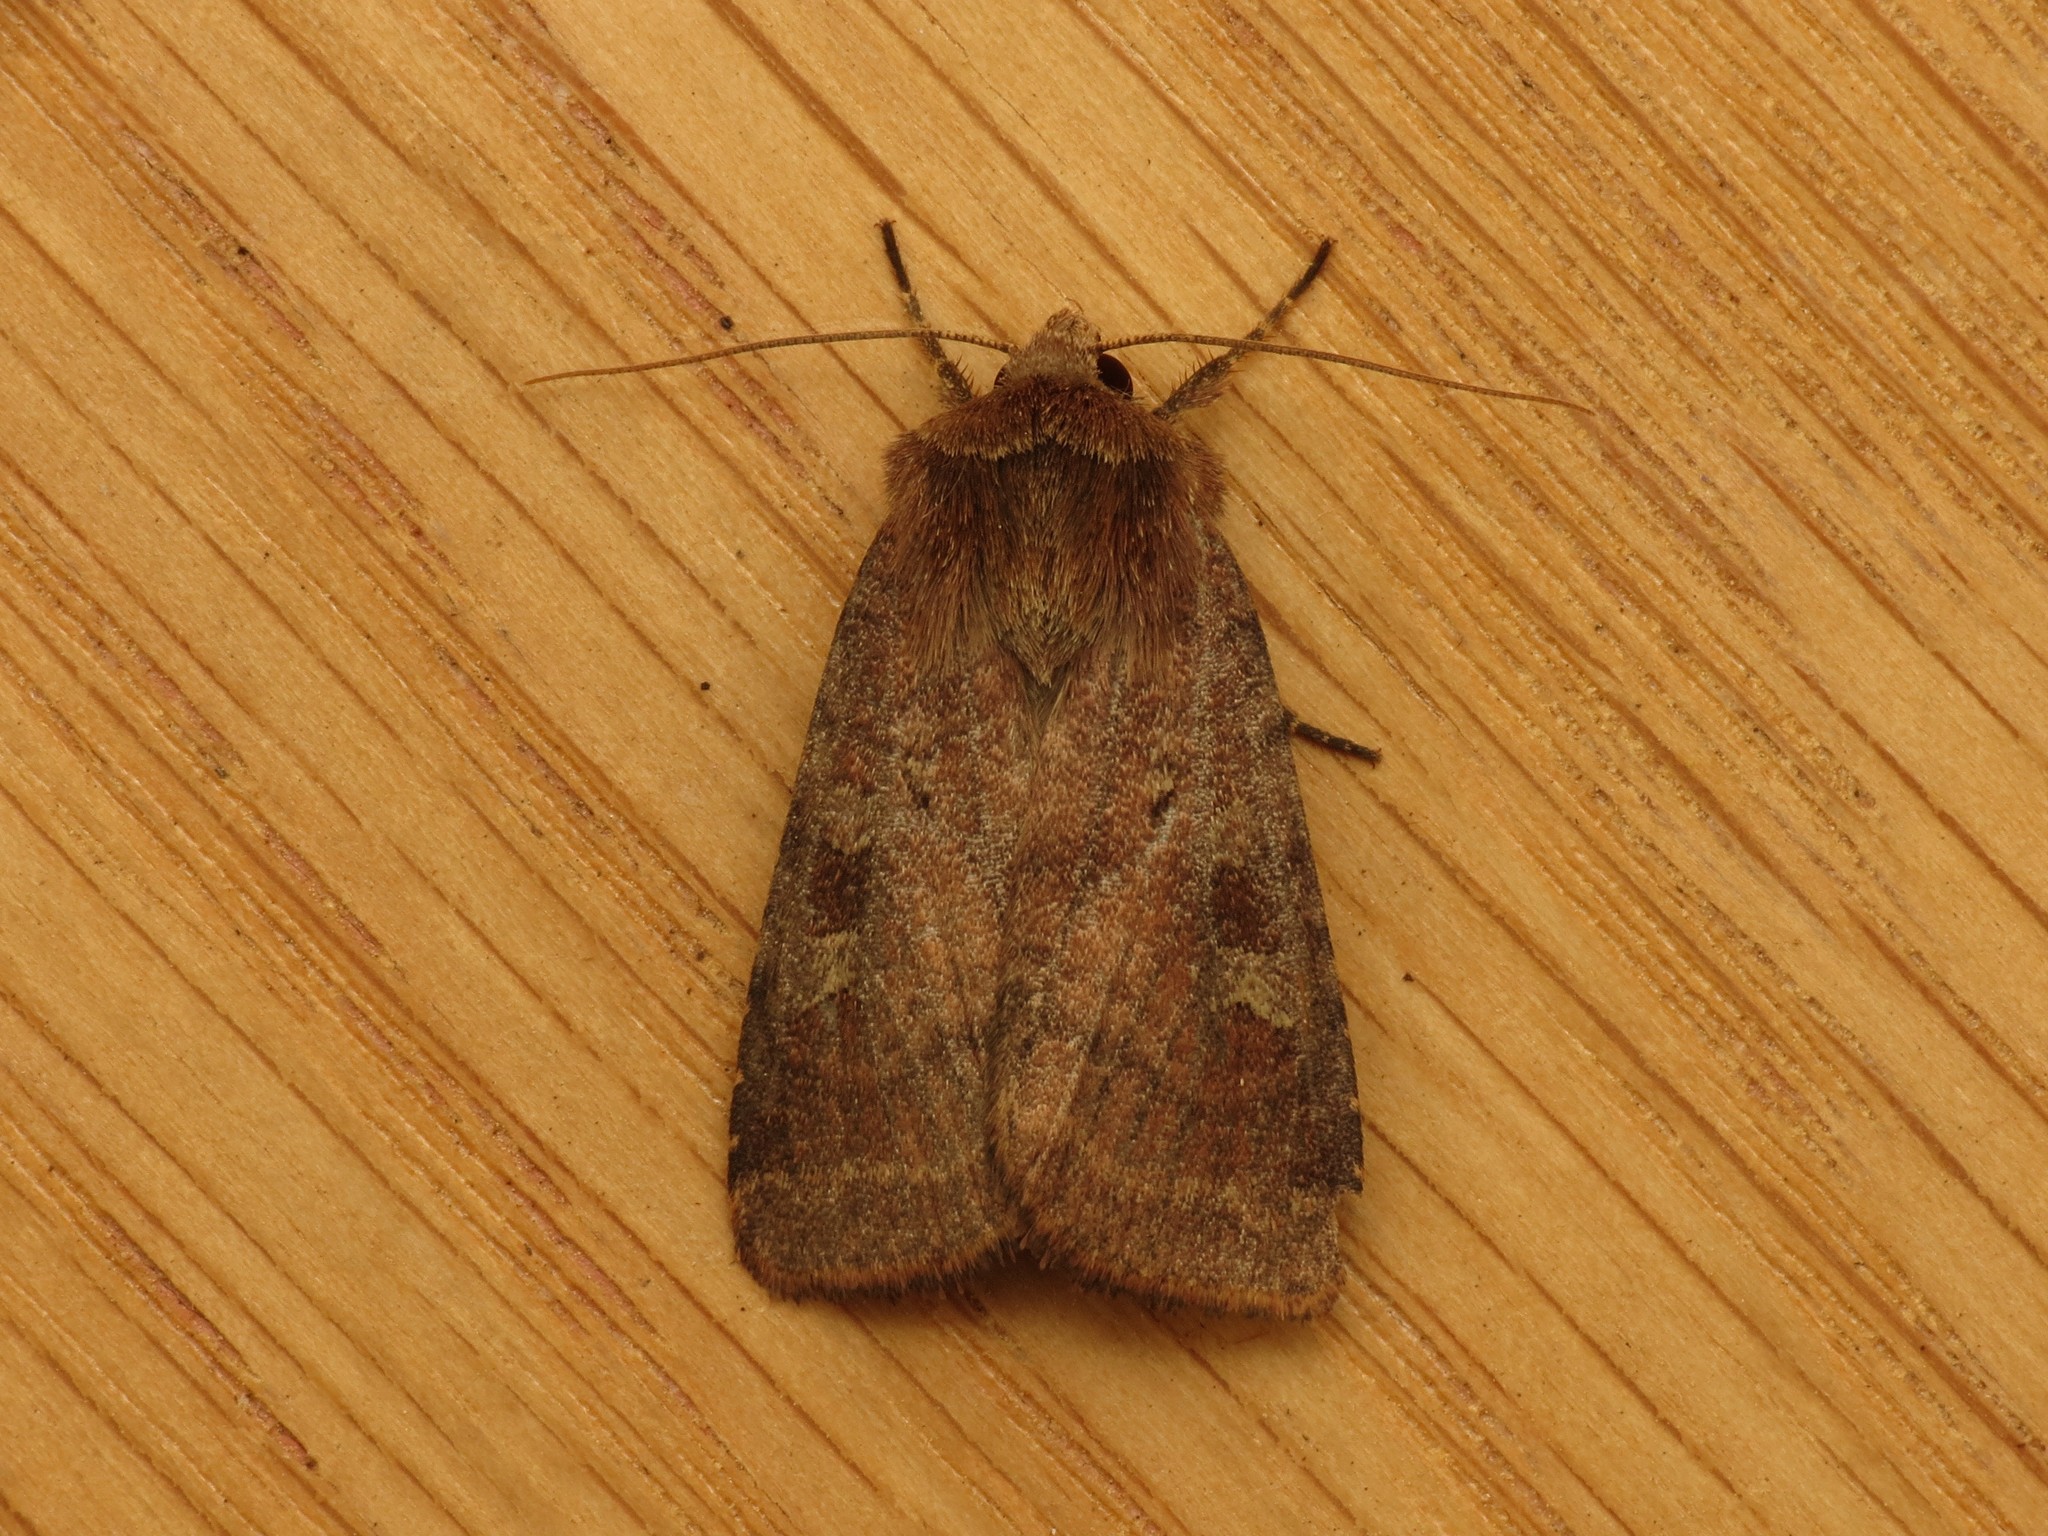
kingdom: Animalia
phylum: Arthropoda
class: Insecta
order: Lepidoptera
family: Noctuidae
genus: Diarsia
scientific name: Diarsia rubi
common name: Small square-spot
